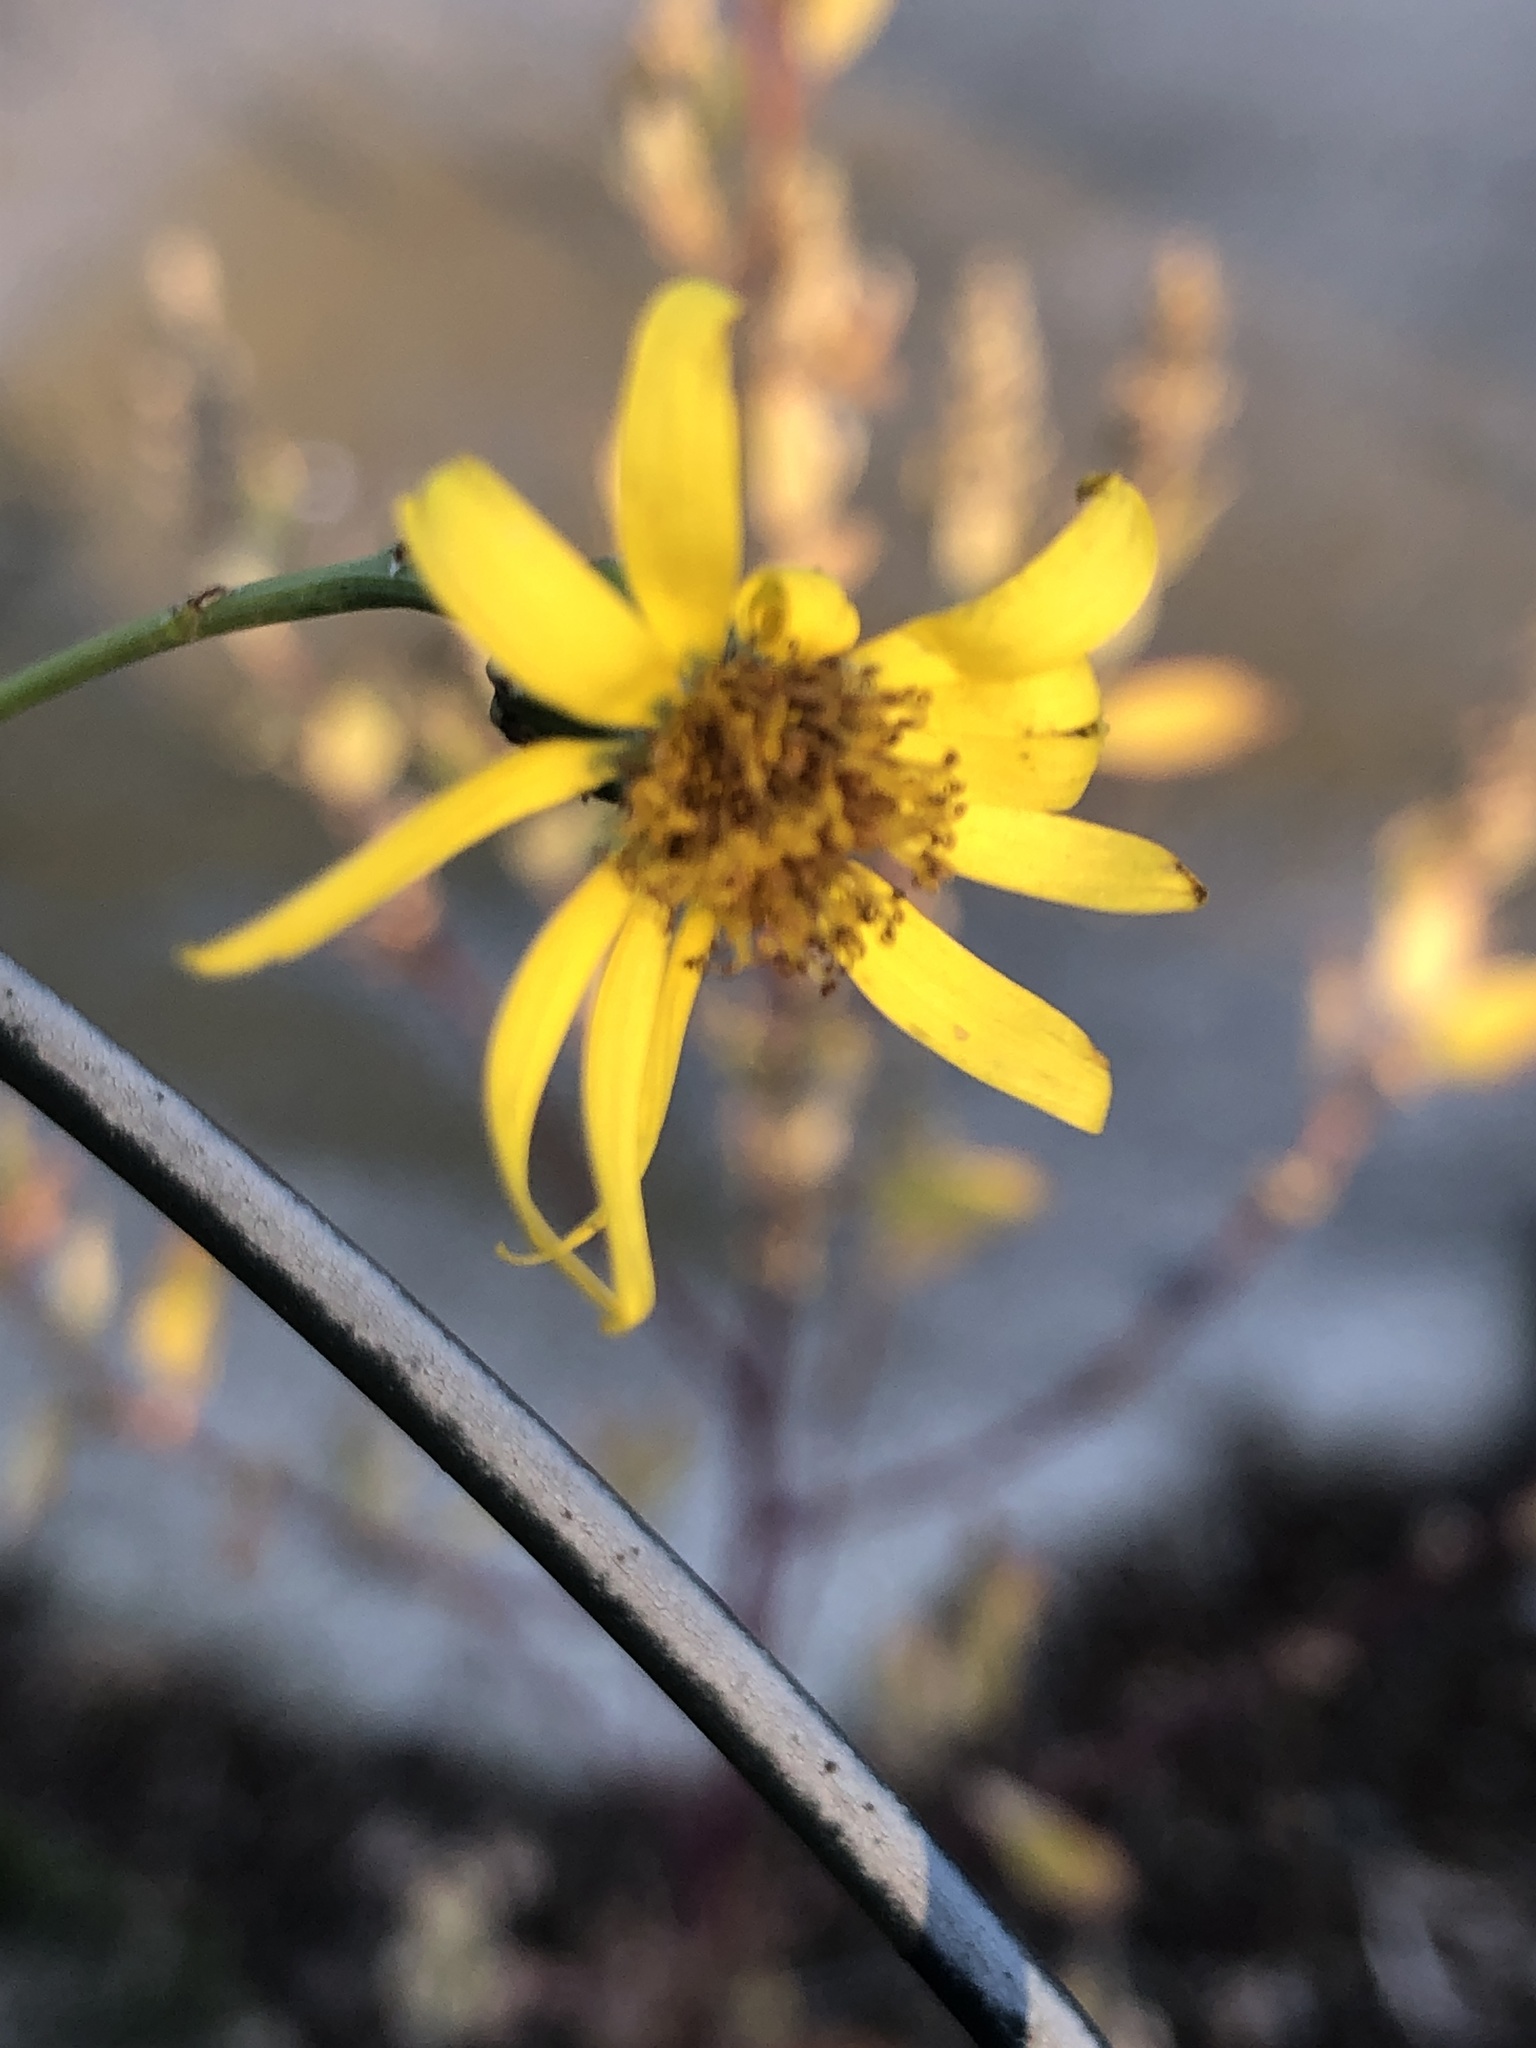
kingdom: Plantae
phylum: Tracheophyta
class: Magnoliopsida
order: Asterales
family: Asteraceae
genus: Senecio
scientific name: Senecio inaequidens
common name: Narrow-leaved ragwort
